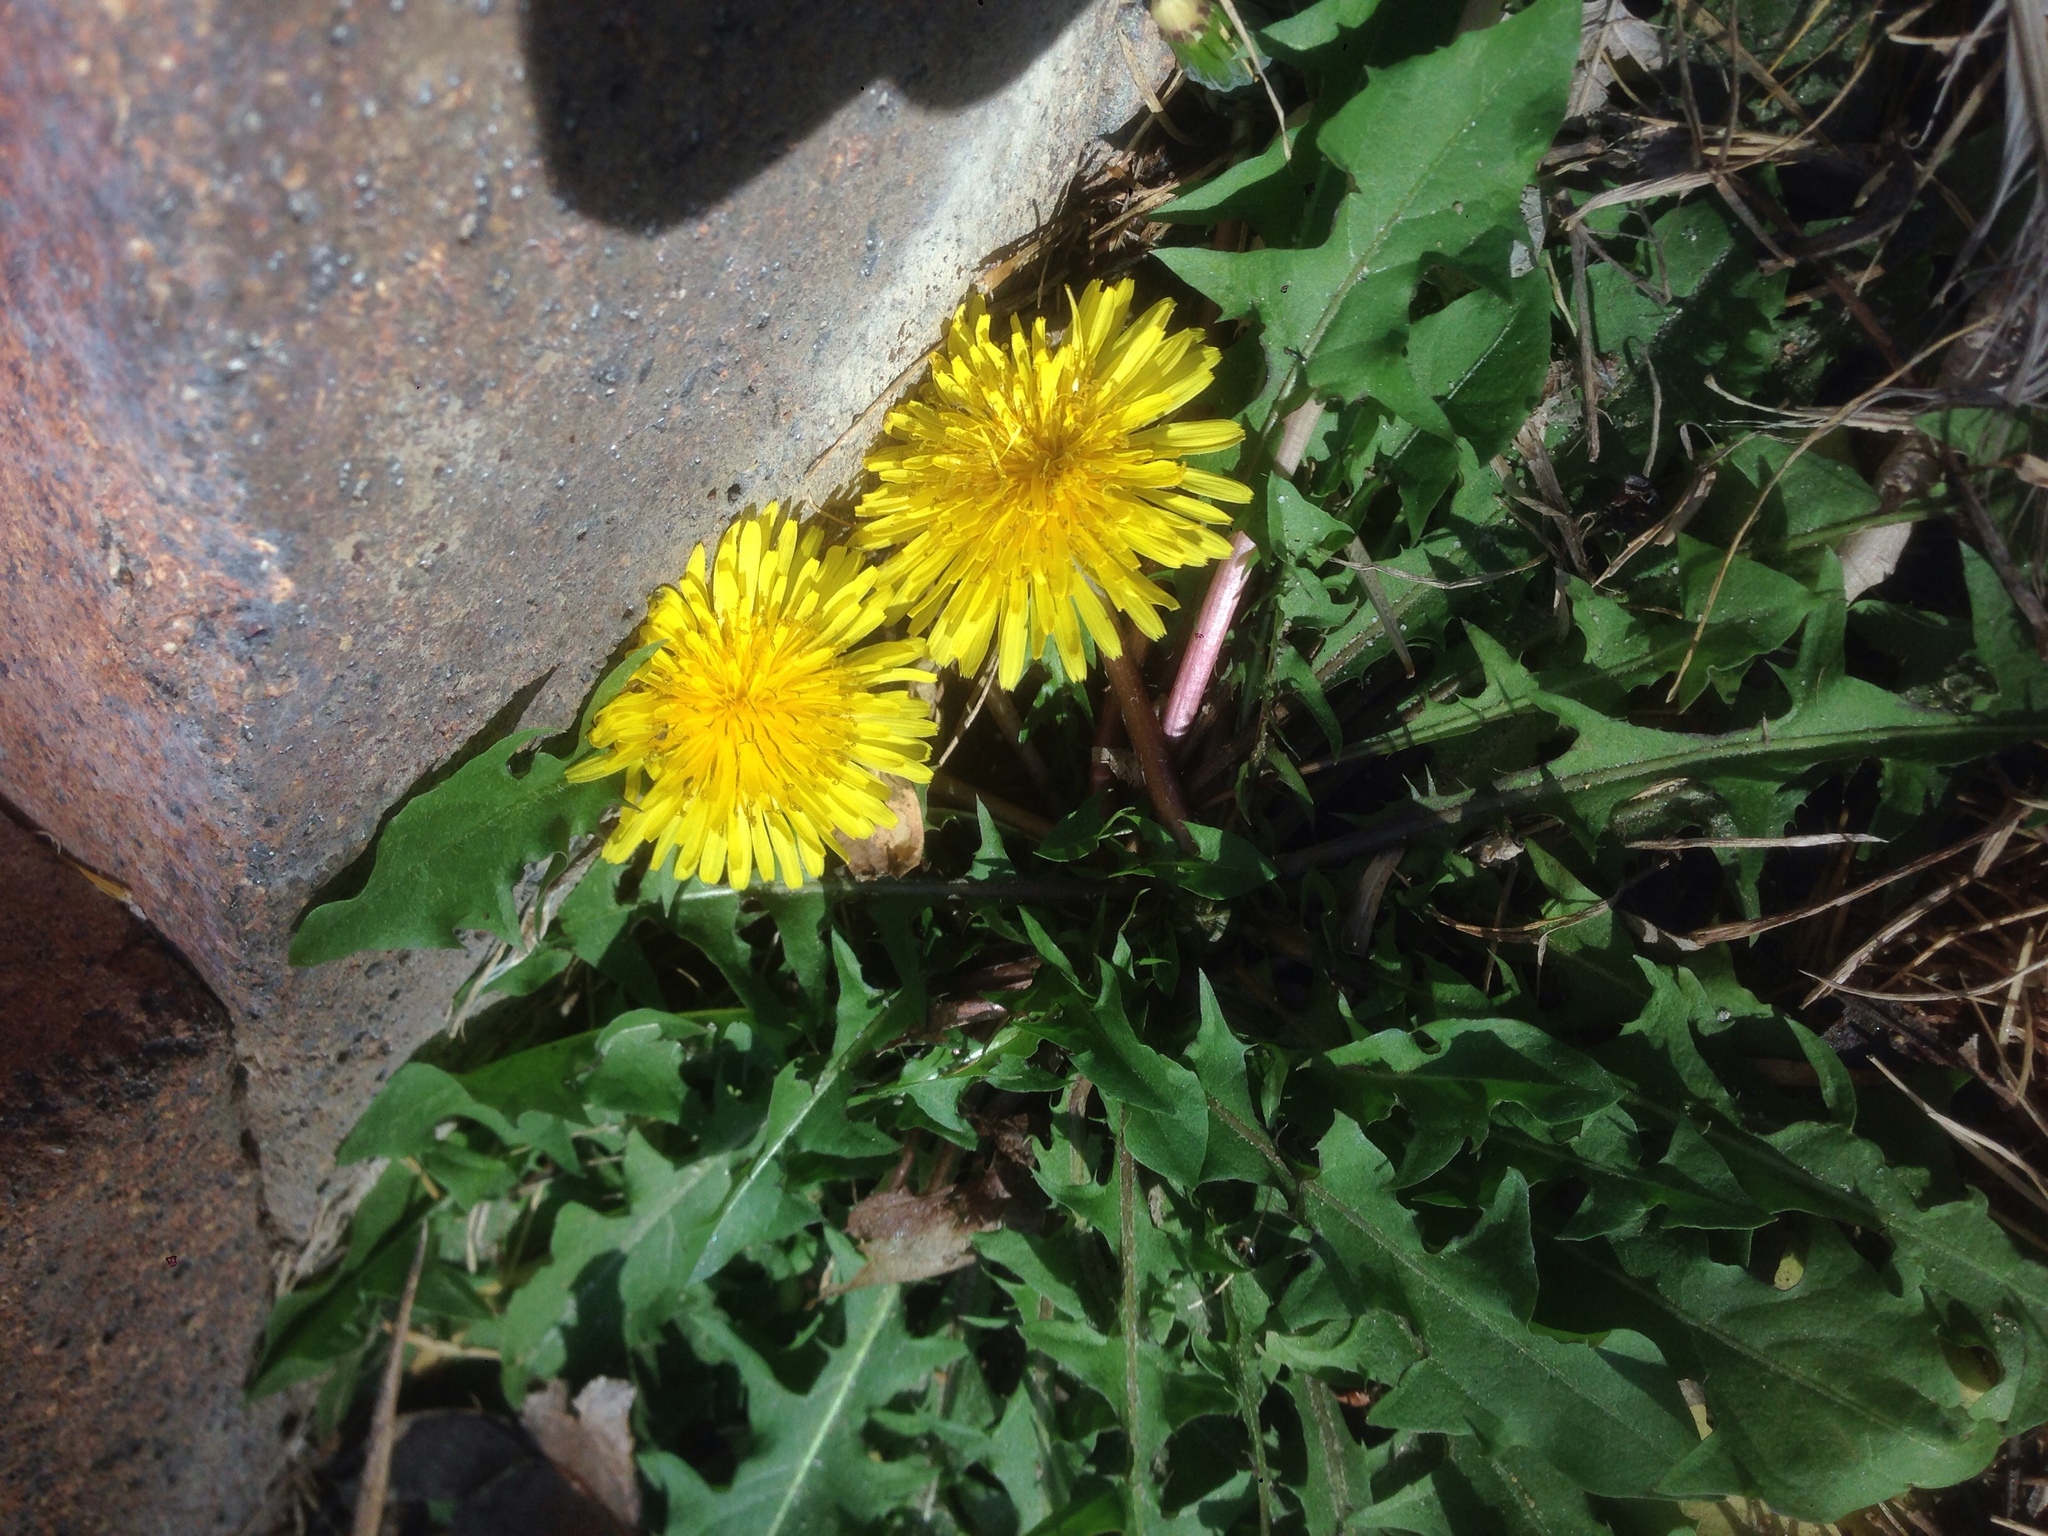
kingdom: Plantae
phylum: Tracheophyta
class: Magnoliopsida
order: Asterales
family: Asteraceae
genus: Taraxacum
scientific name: Taraxacum officinale
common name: Common dandelion
